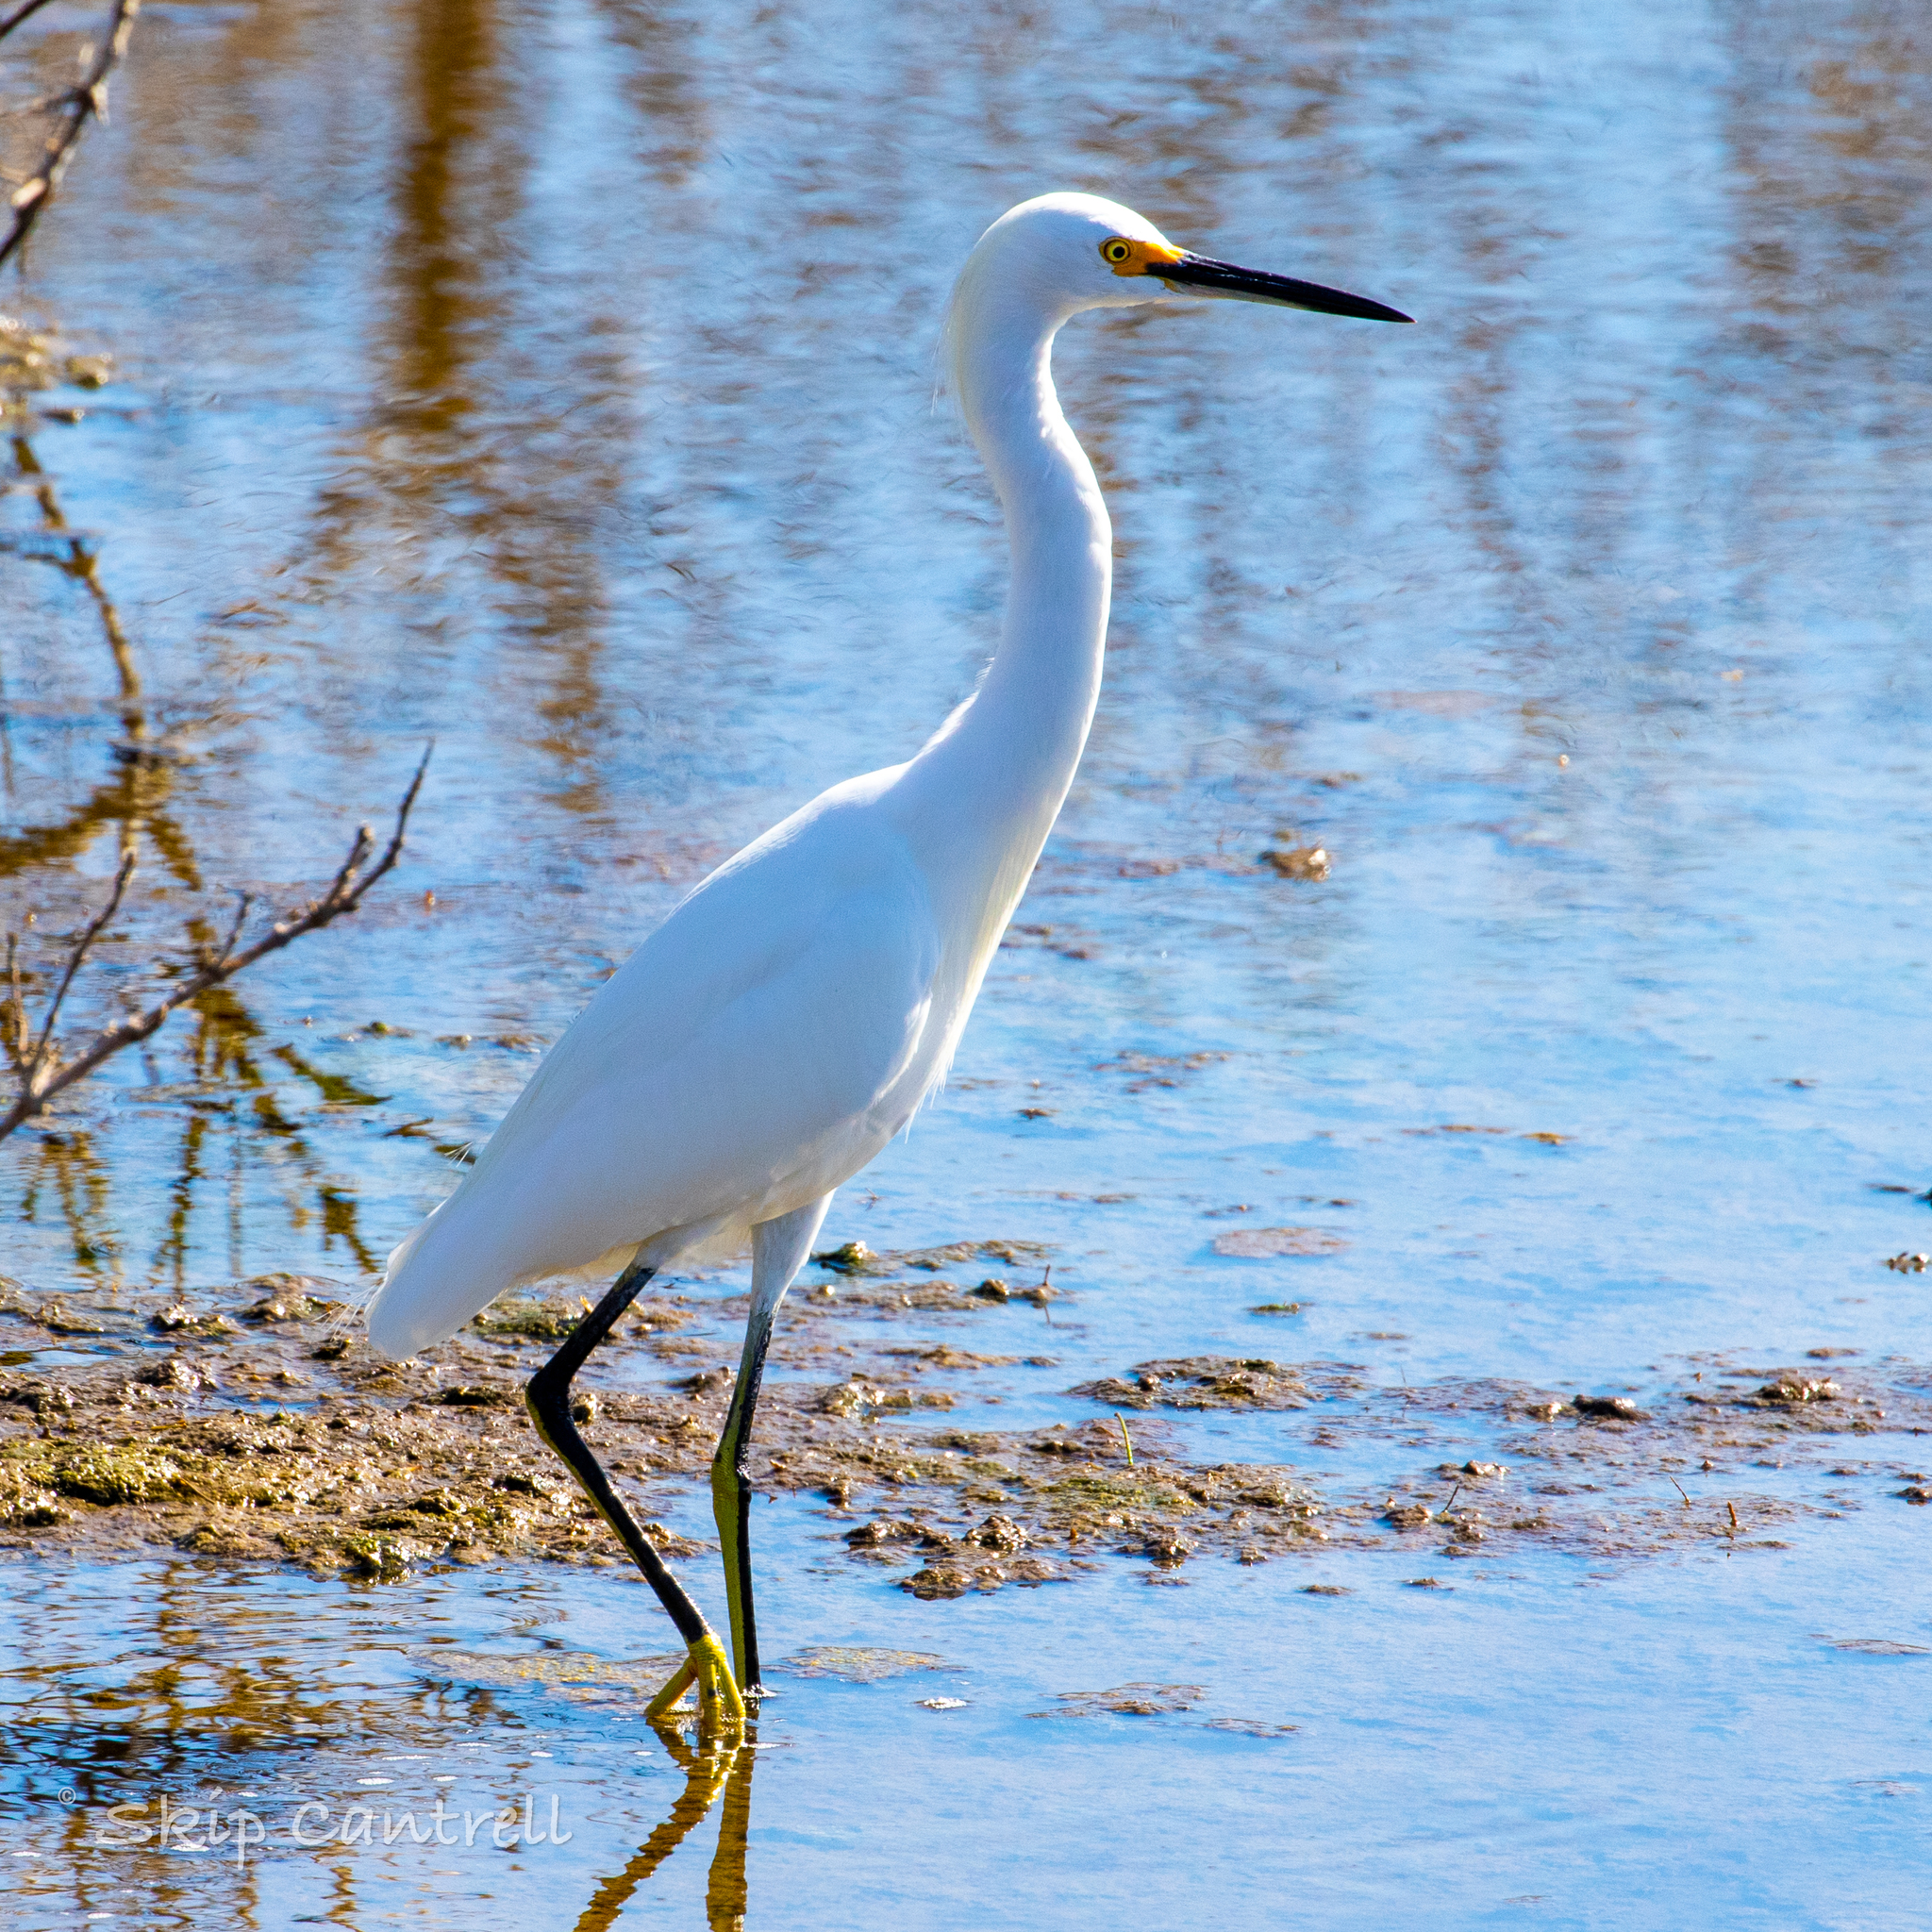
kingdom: Animalia
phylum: Chordata
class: Aves
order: Pelecaniformes
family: Ardeidae
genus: Egretta
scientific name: Egretta thula
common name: Snowy egret
